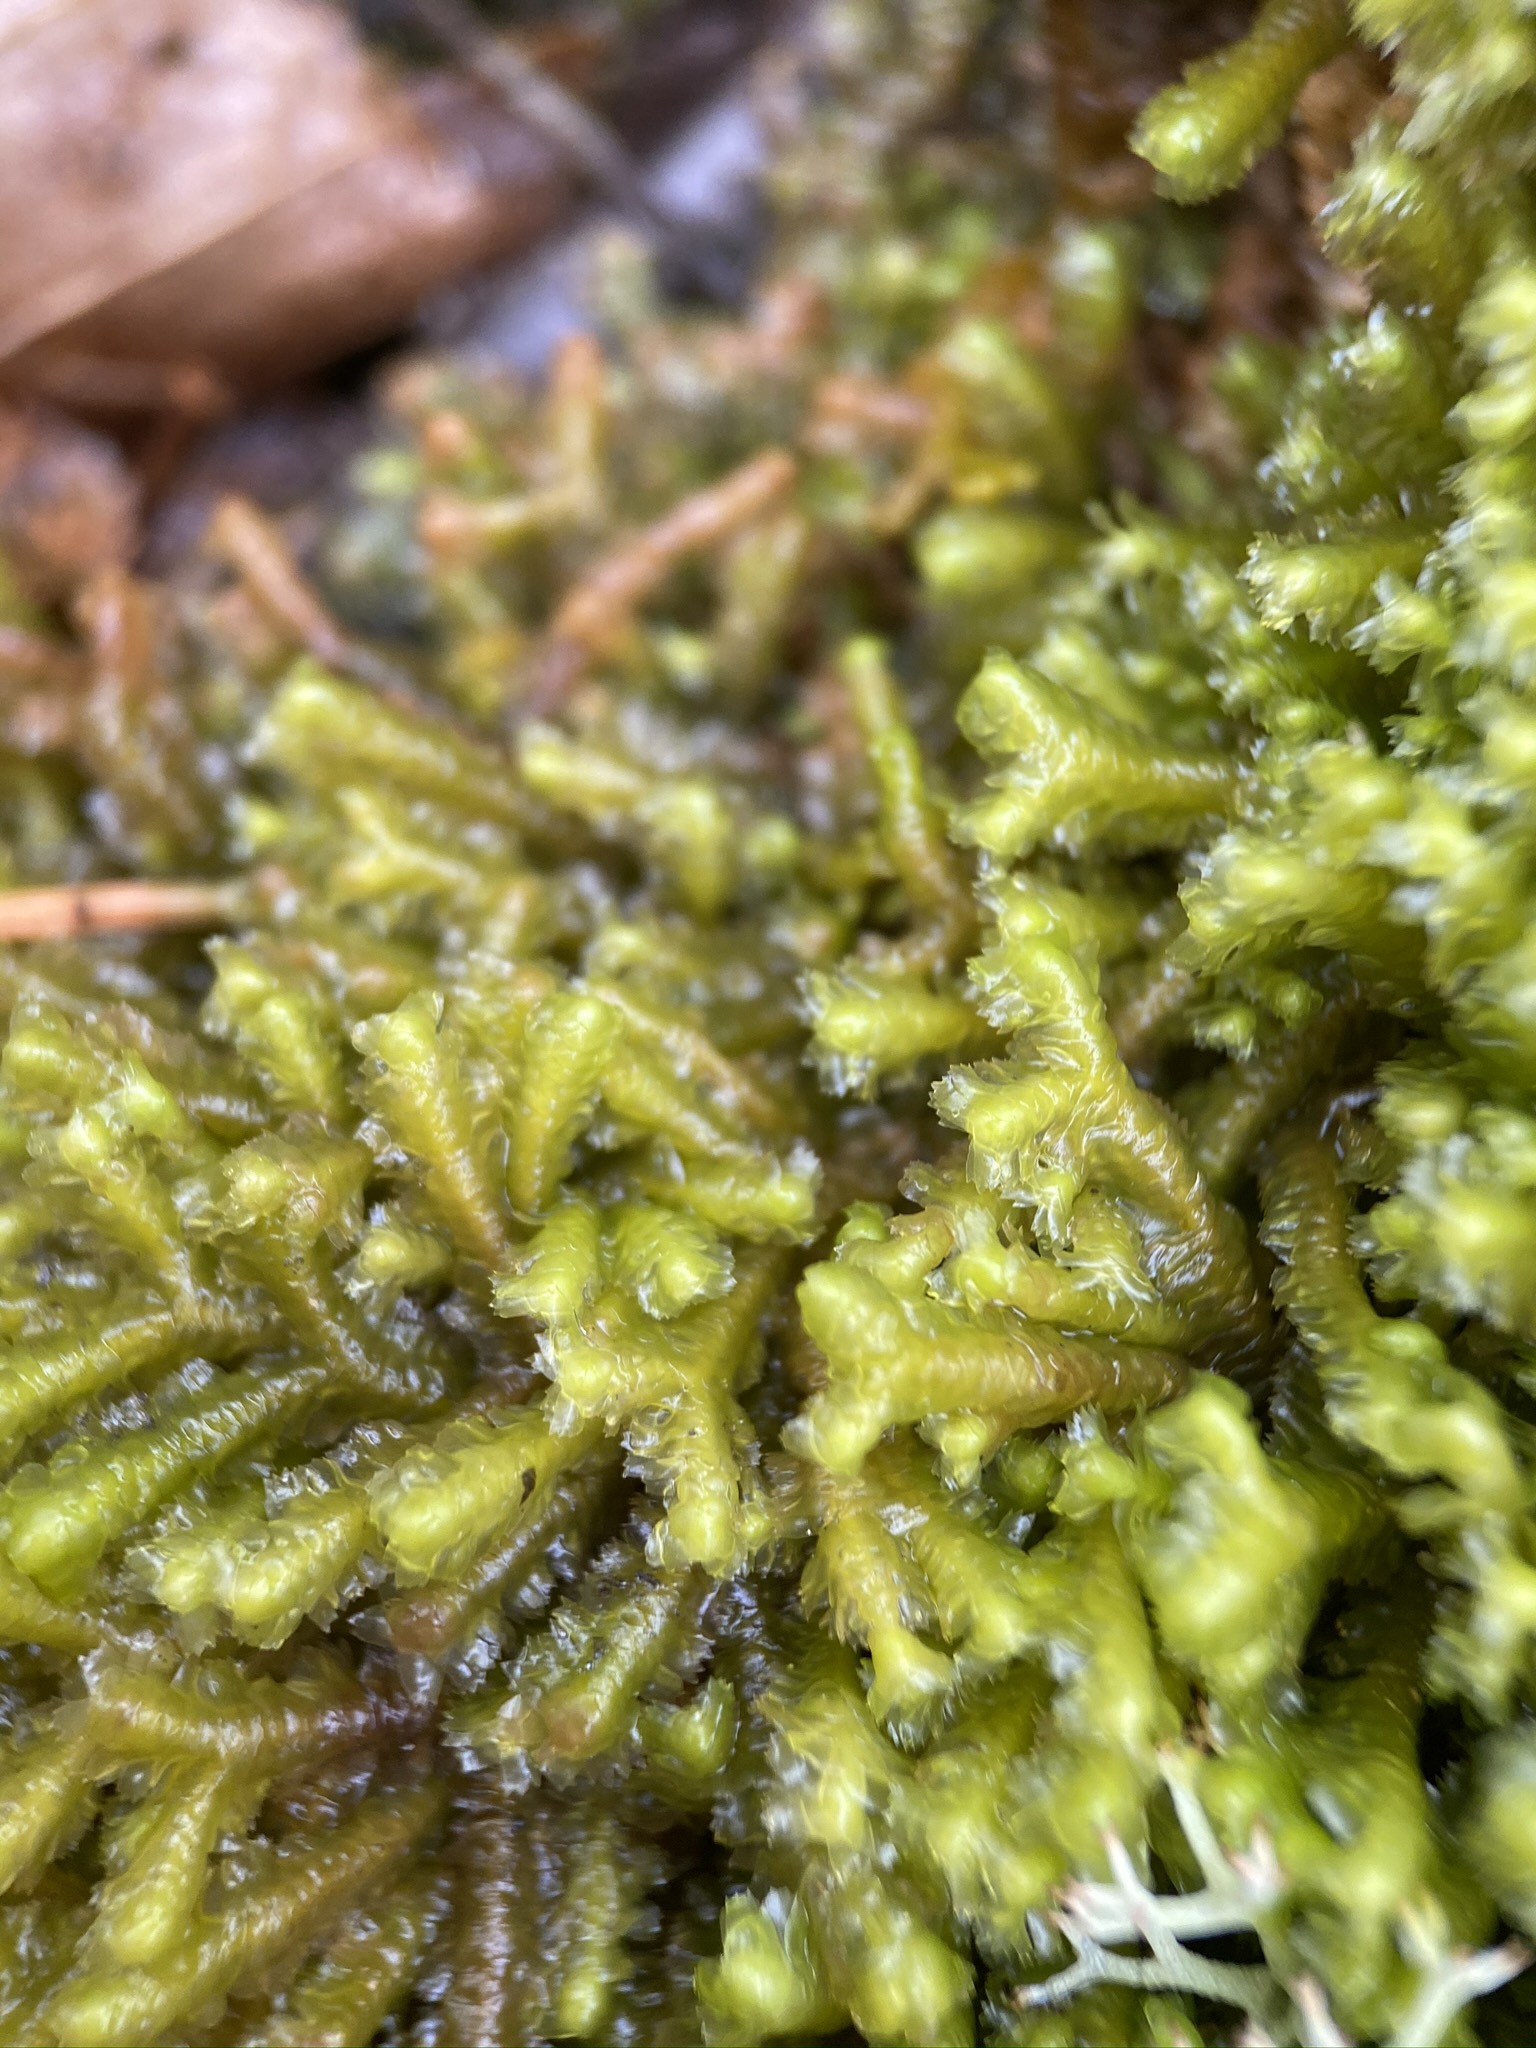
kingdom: Plantae
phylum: Marchantiophyta
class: Jungermanniopsida
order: Jungermanniales
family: Lepidoziaceae
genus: Bazzania
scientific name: Bazzania trilobata
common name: Three-lobed whipwort
